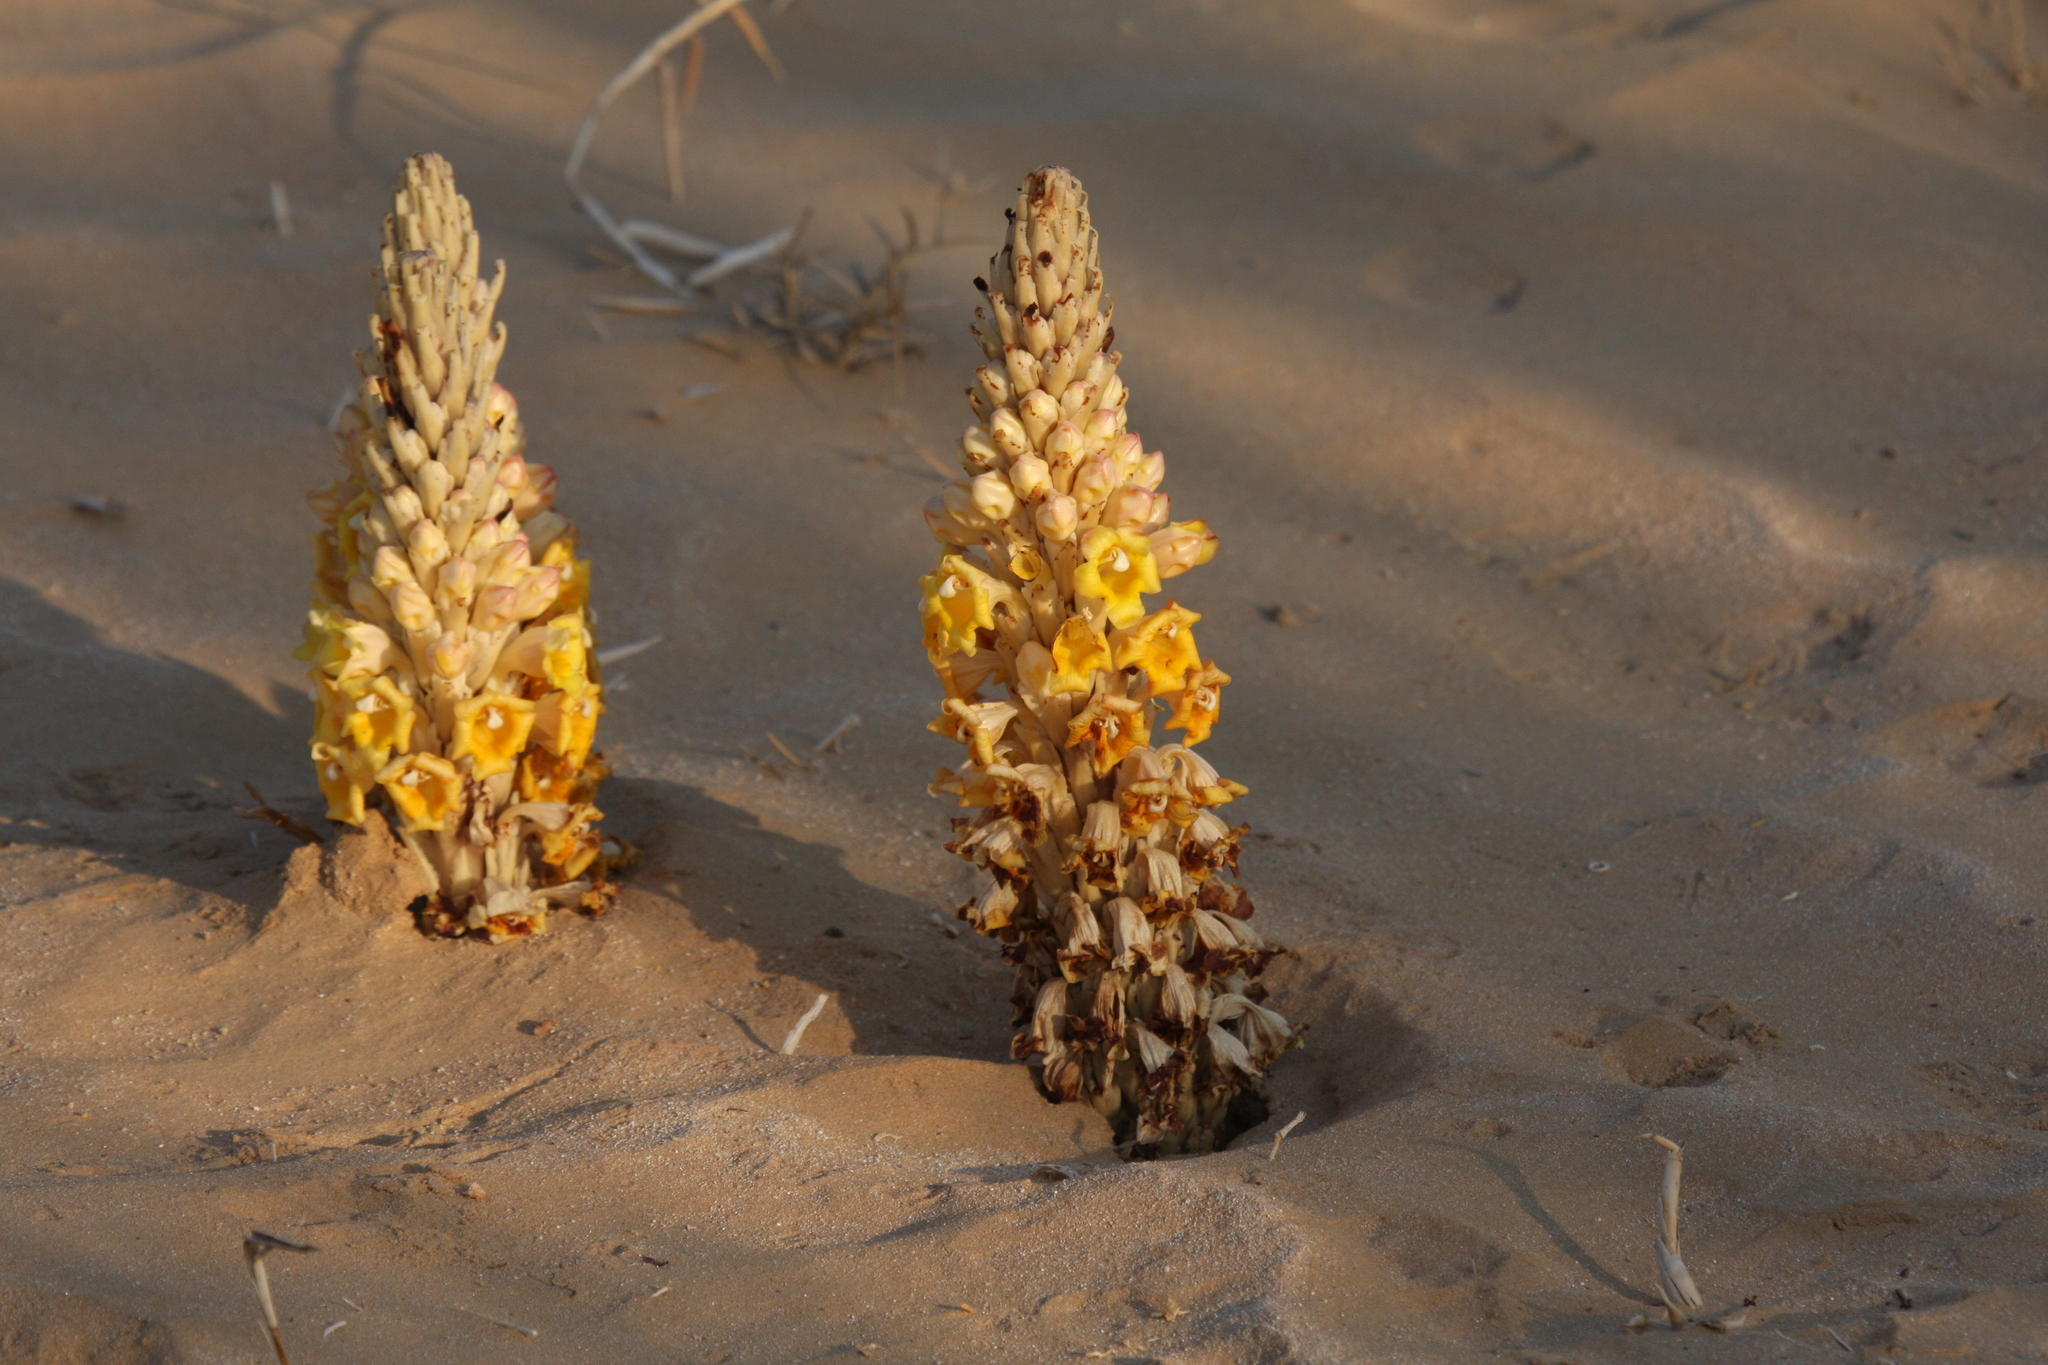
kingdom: Plantae
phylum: Tracheophyta
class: Magnoliopsida
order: Lamiales
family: Orobanchaceae
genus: Cistanche
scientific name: Cistanche tubulosa
